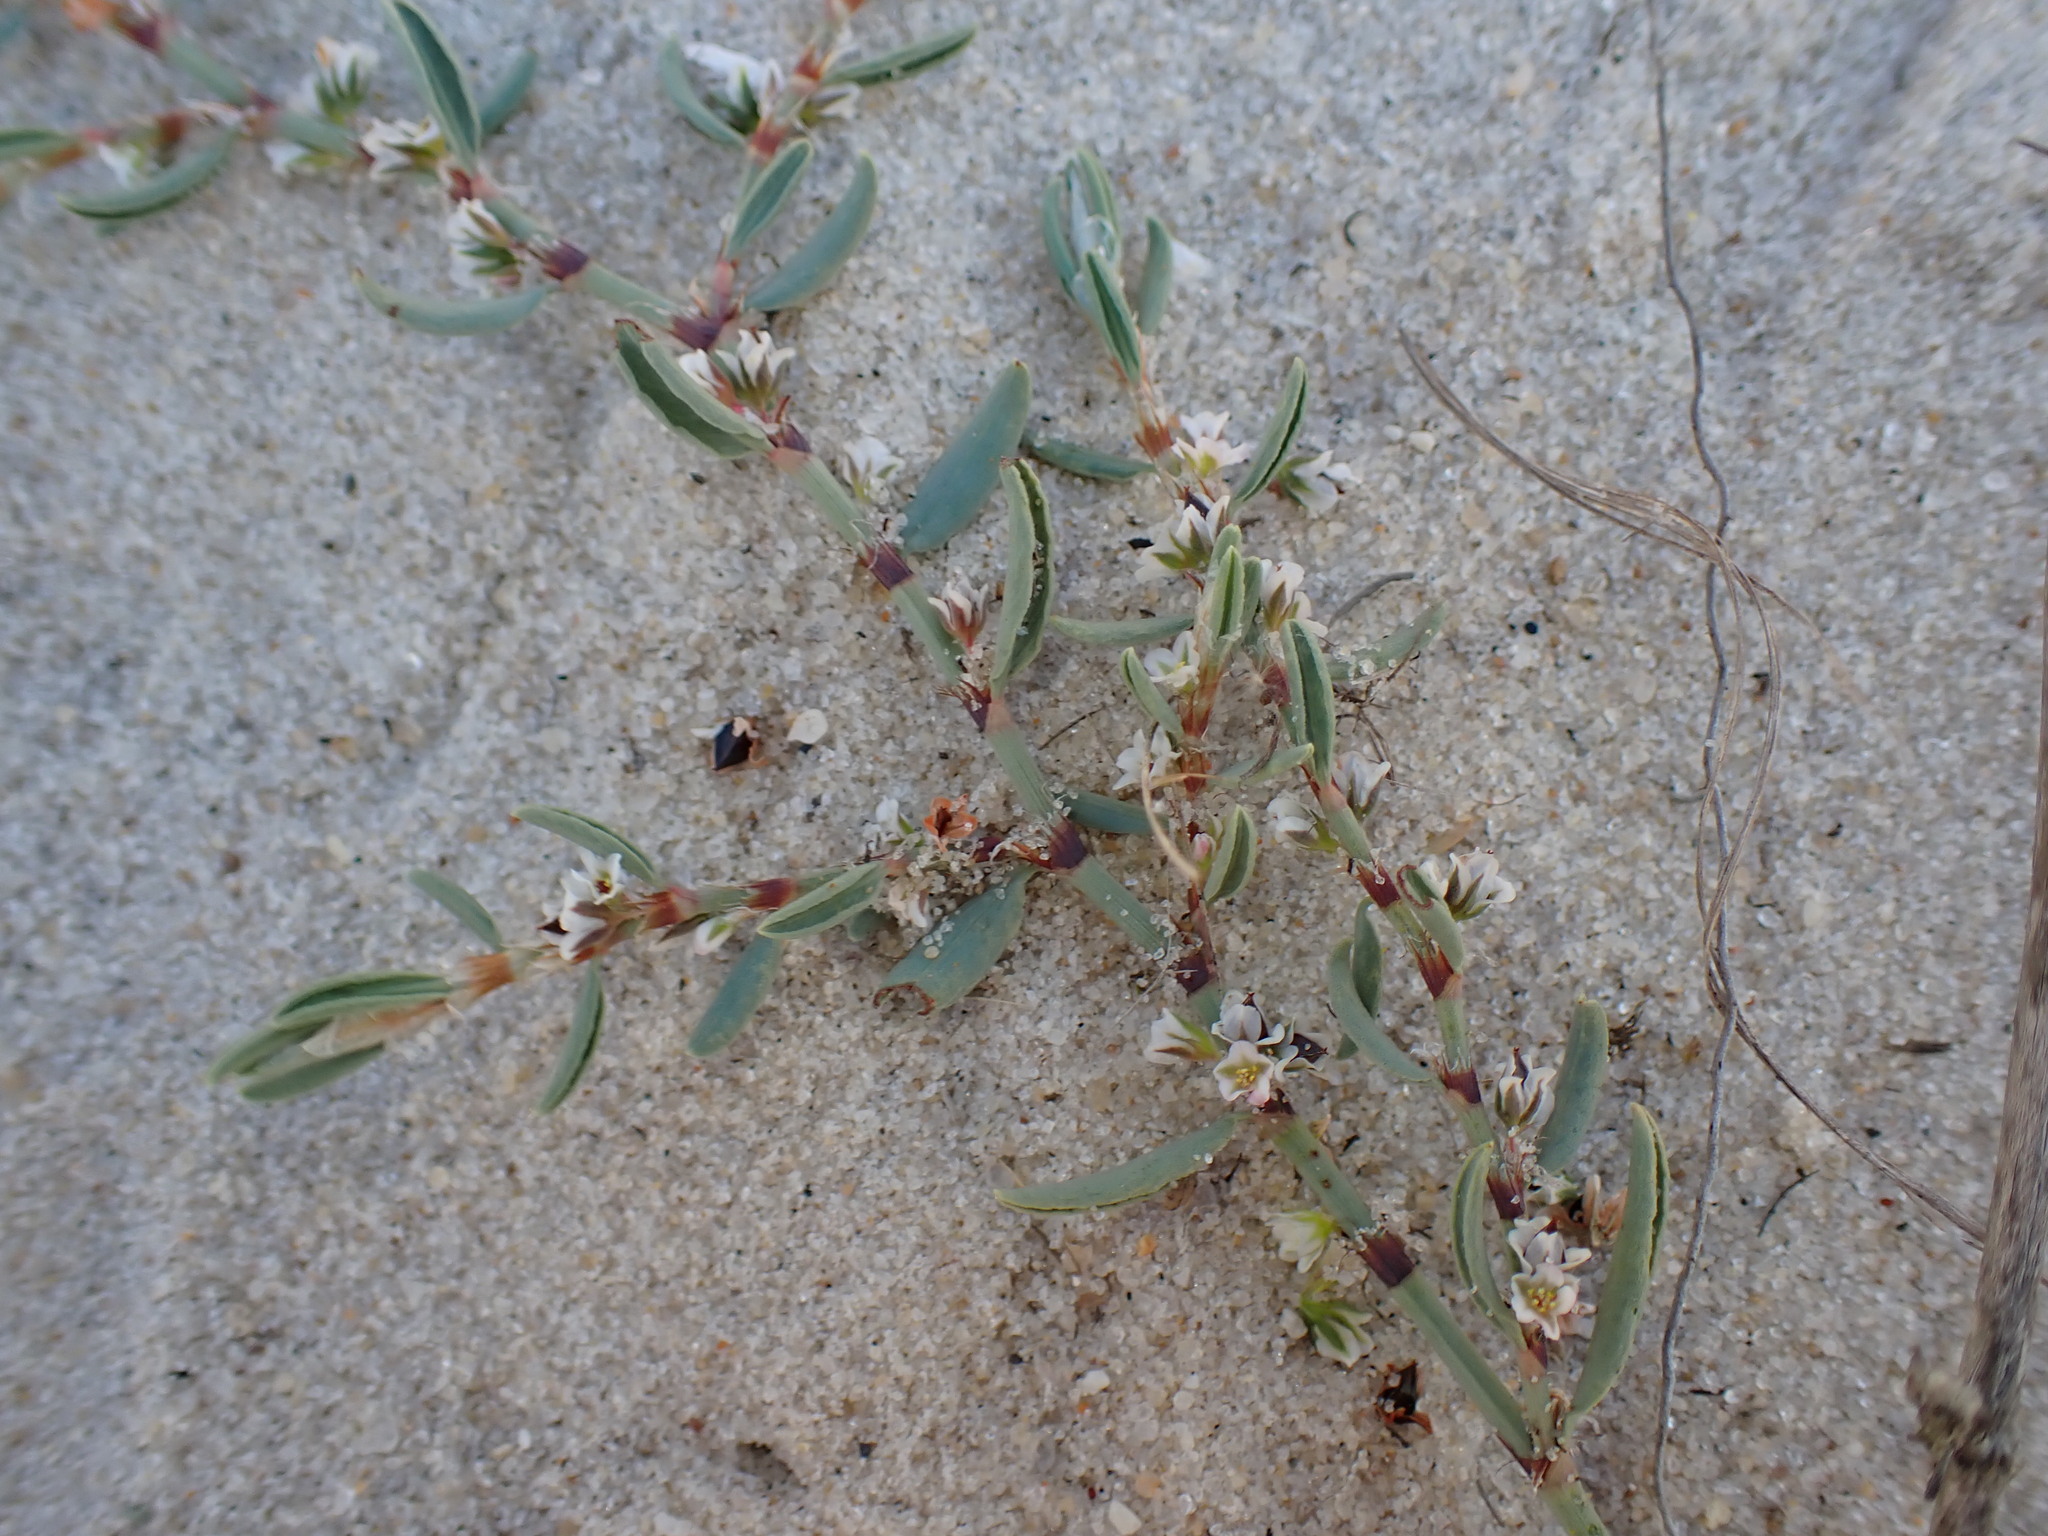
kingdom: Plantae
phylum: Tracheophyta
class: Magnoliopsida
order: Caryophyllales
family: Polygonaceae
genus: Polygonum
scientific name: Polygonum glaucum
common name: Seaside knotweed
